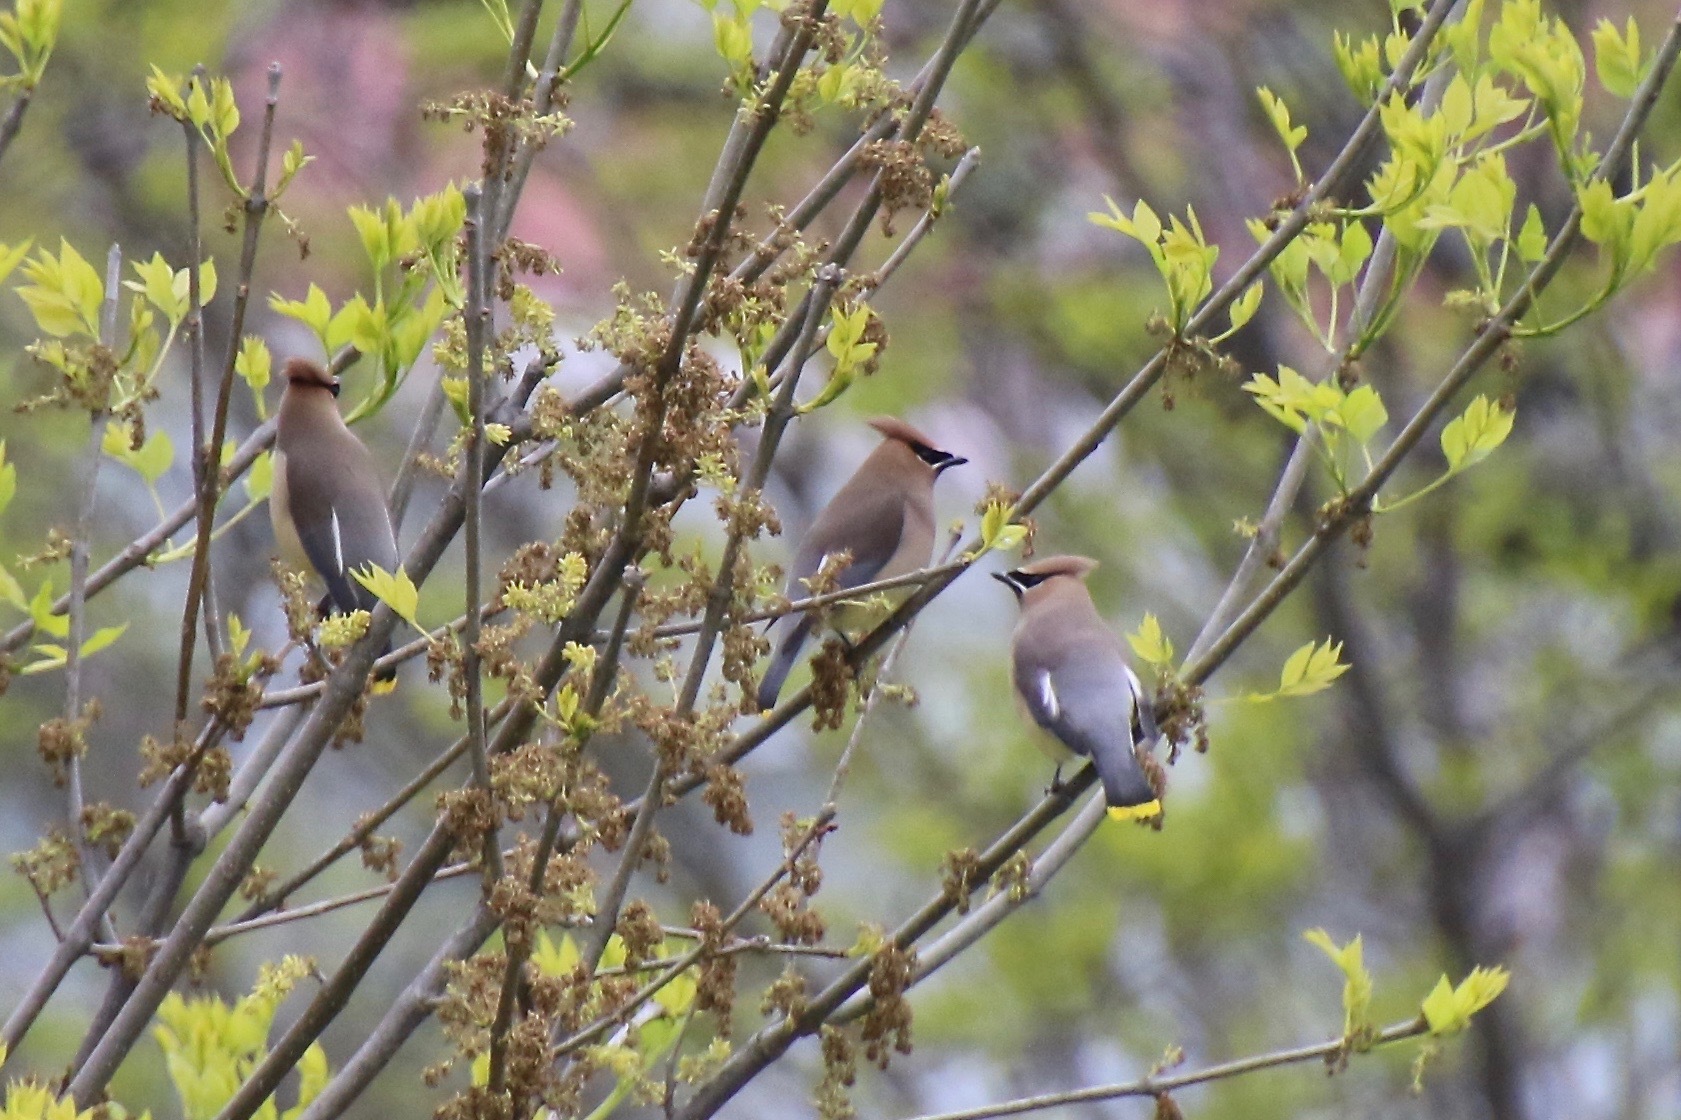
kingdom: Animalia
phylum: Chordata
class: Aves
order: Passeriformes
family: Bombycillidae
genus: Bombycilla
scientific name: Bombycilla cedrorum
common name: Cedar waxwing
